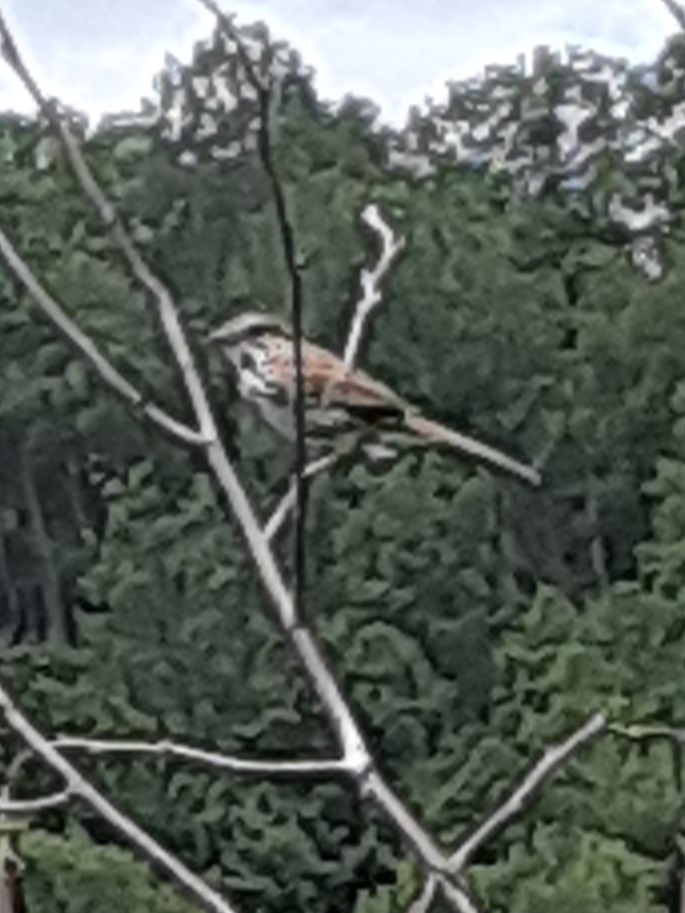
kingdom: Animalia
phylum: Chordata
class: Aves
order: Passeriformes
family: Passerellidae
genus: Melospiza
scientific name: Melospiza melodia
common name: Song sparrow
